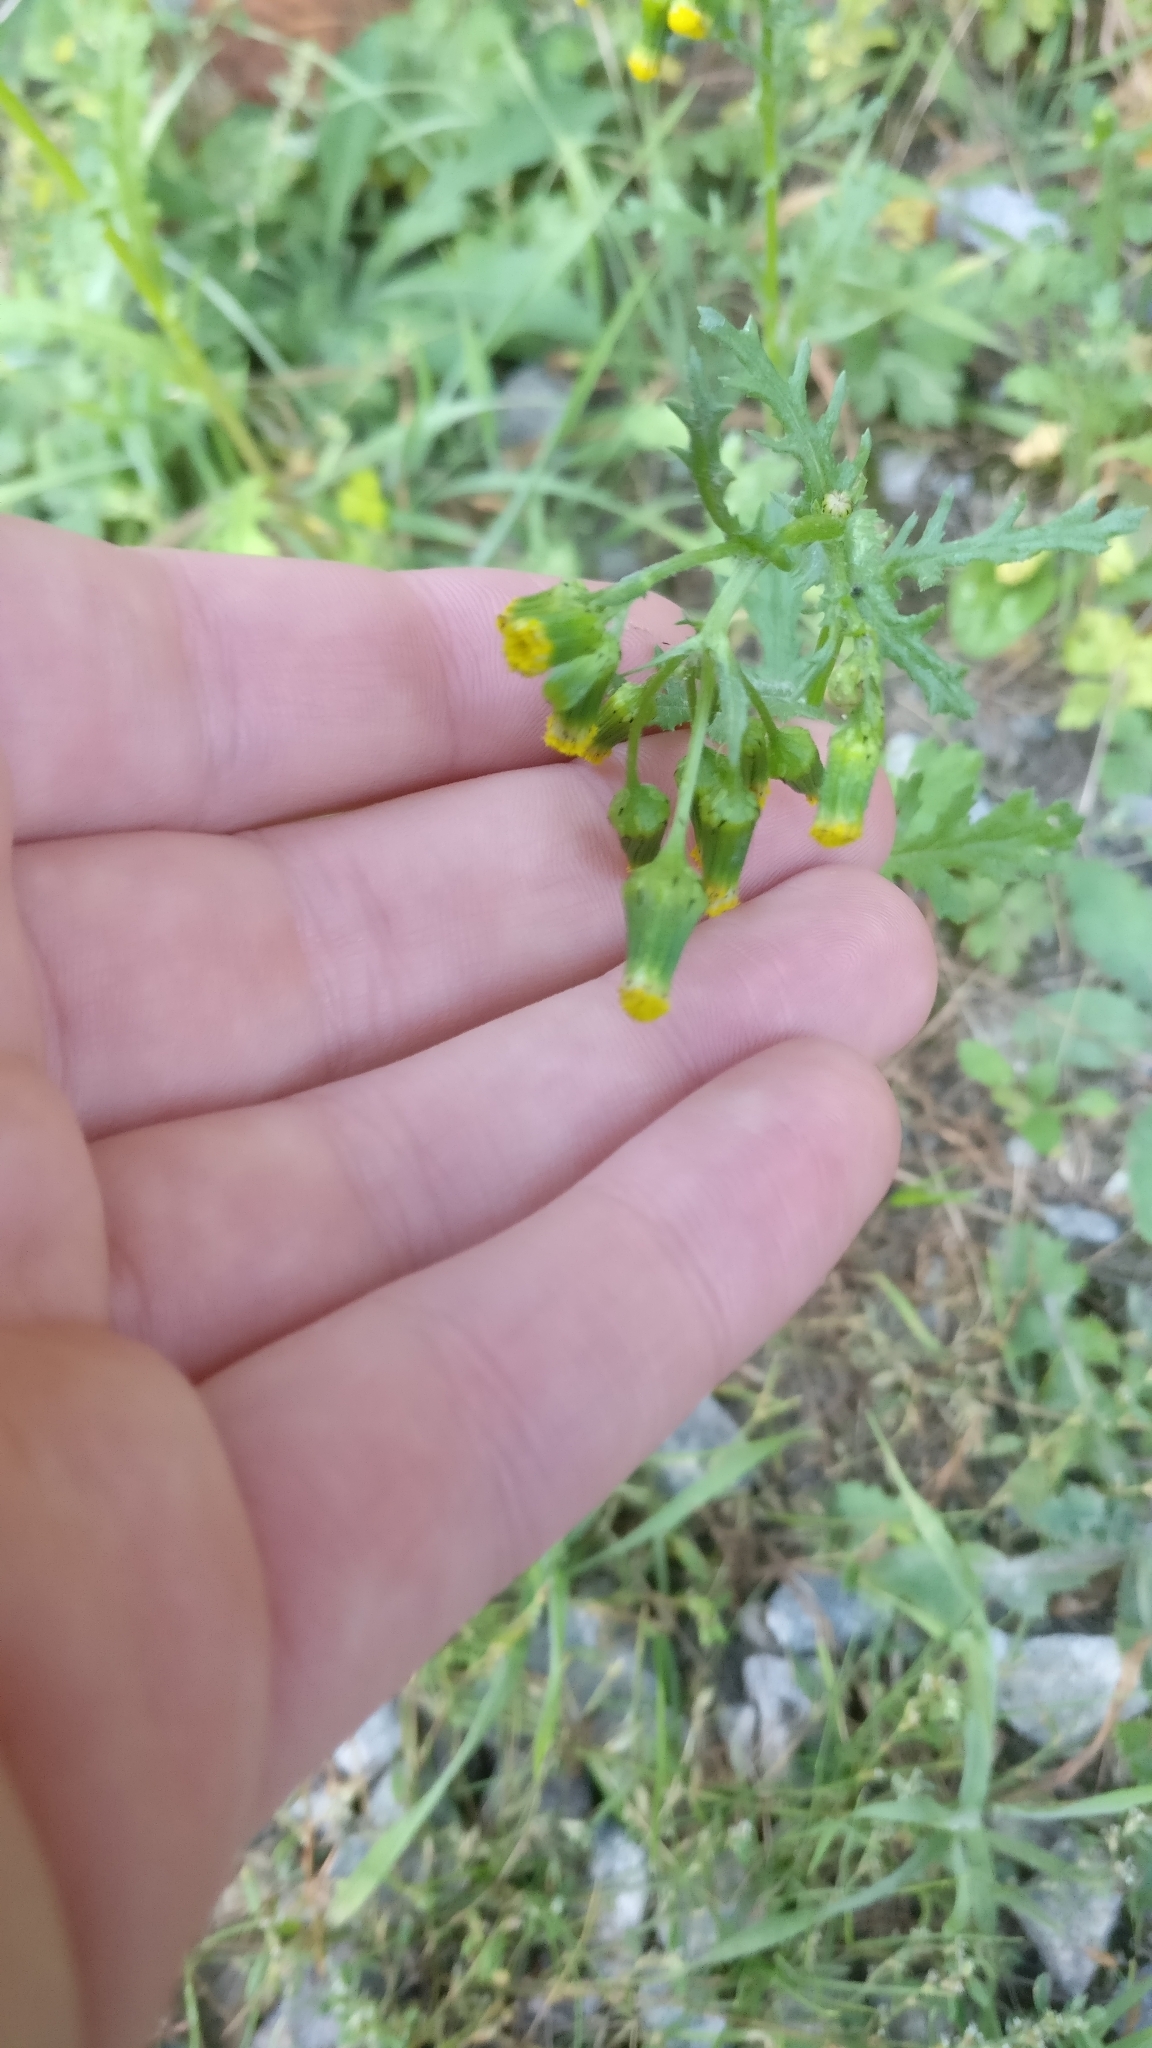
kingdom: Plantae
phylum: Tracheophyta
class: Magnoliopsida
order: Asterales
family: Asteraceae
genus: Senecio
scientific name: Senecio vulgaris
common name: Old-man-in-the-spring
